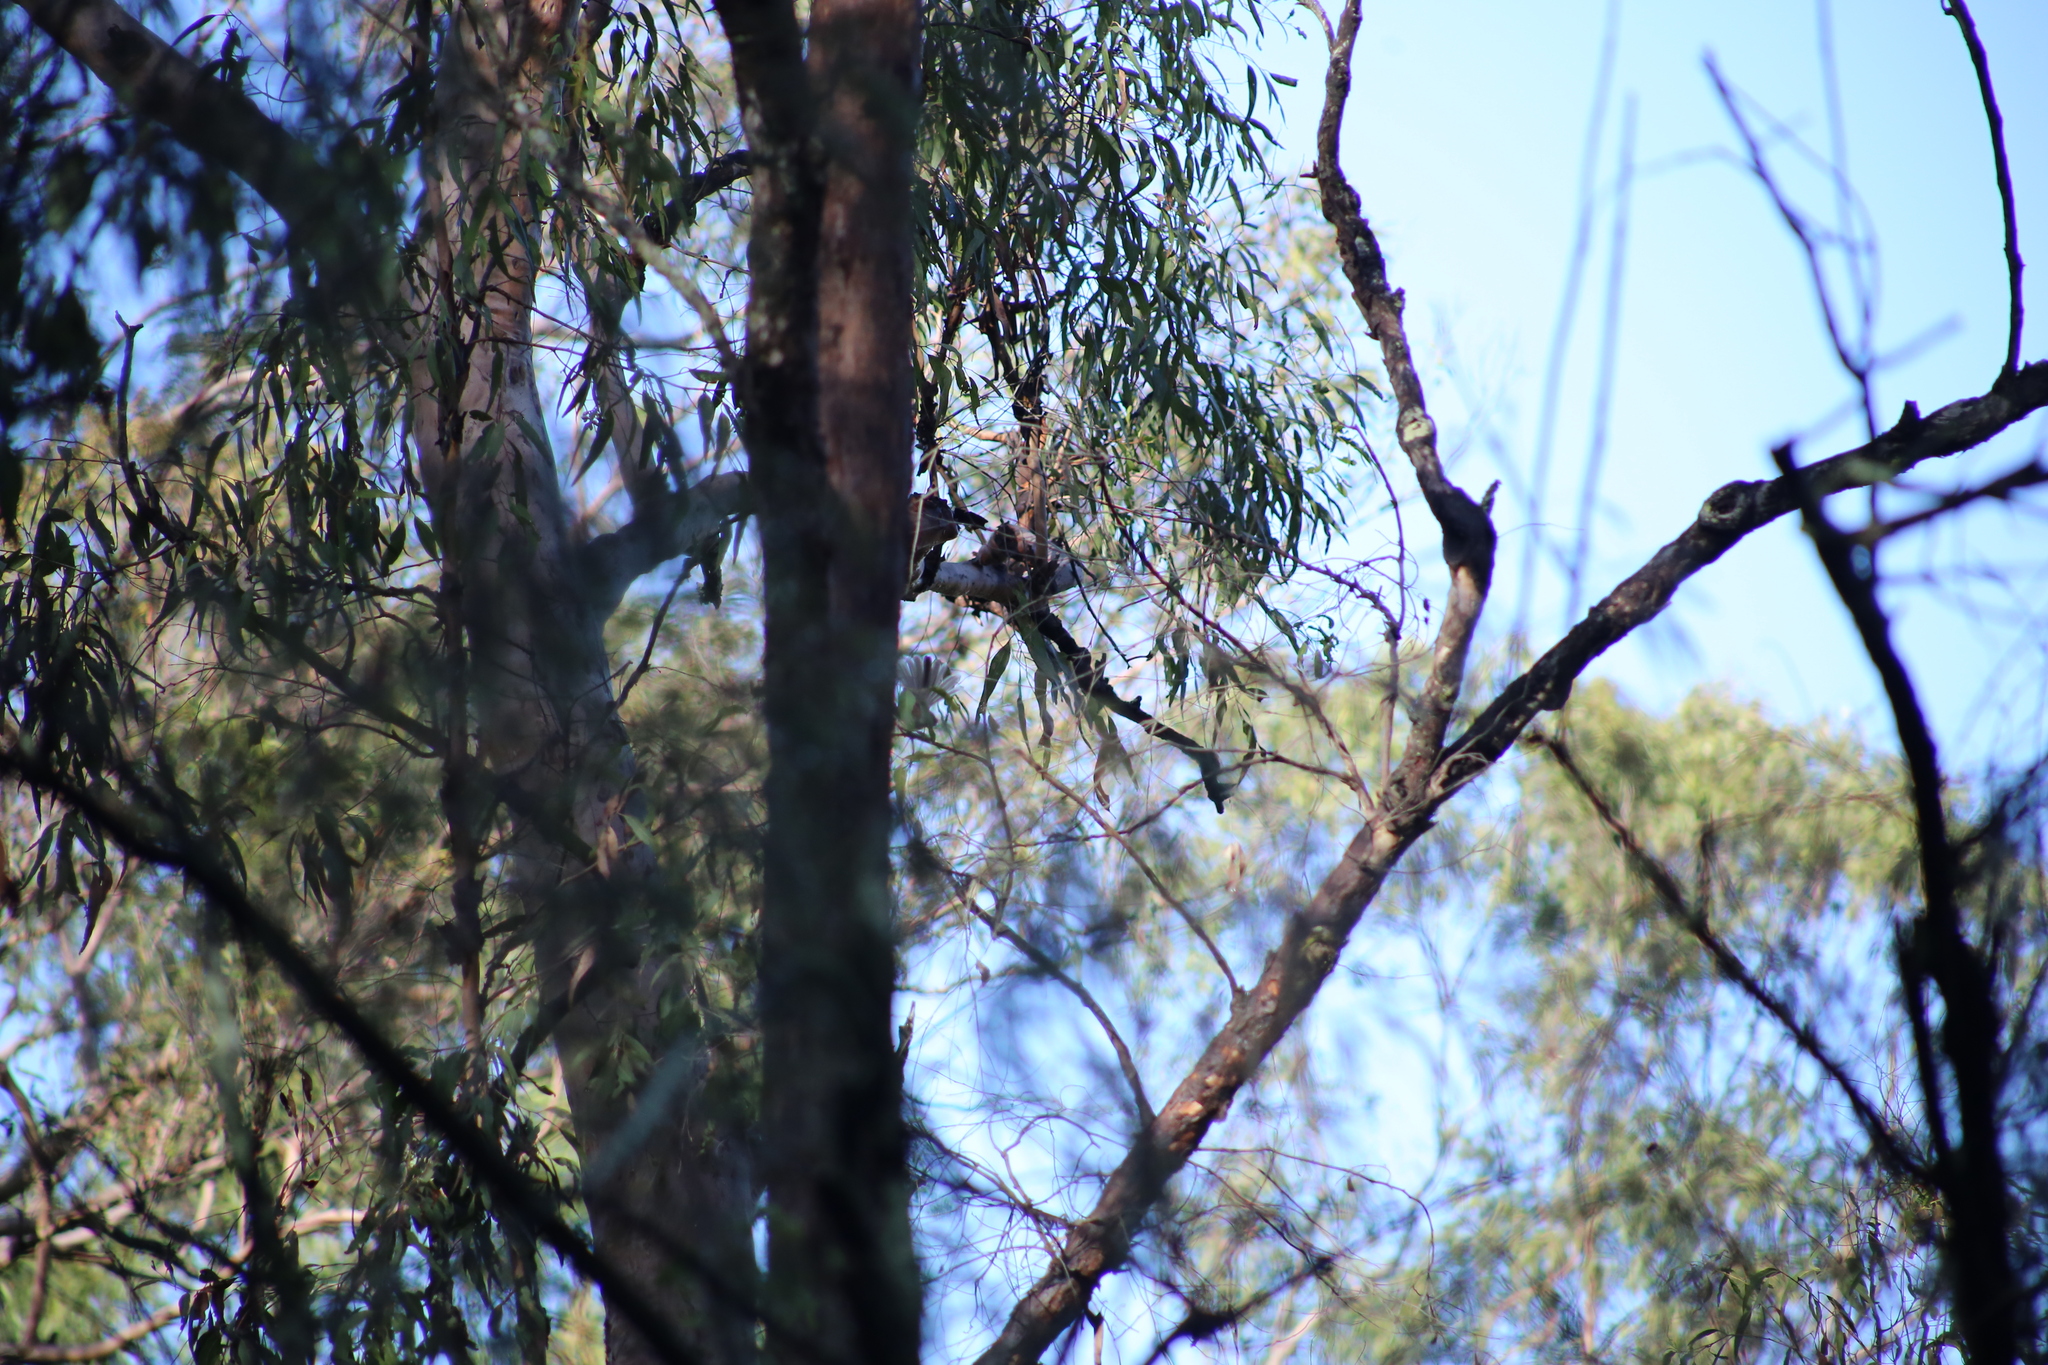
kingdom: Animalia
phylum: Chordata
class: Aves
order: Passeriformes
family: Rhipiduridae
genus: Rhipidura
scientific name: Rhipidura albiscapa
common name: Grey fantail
